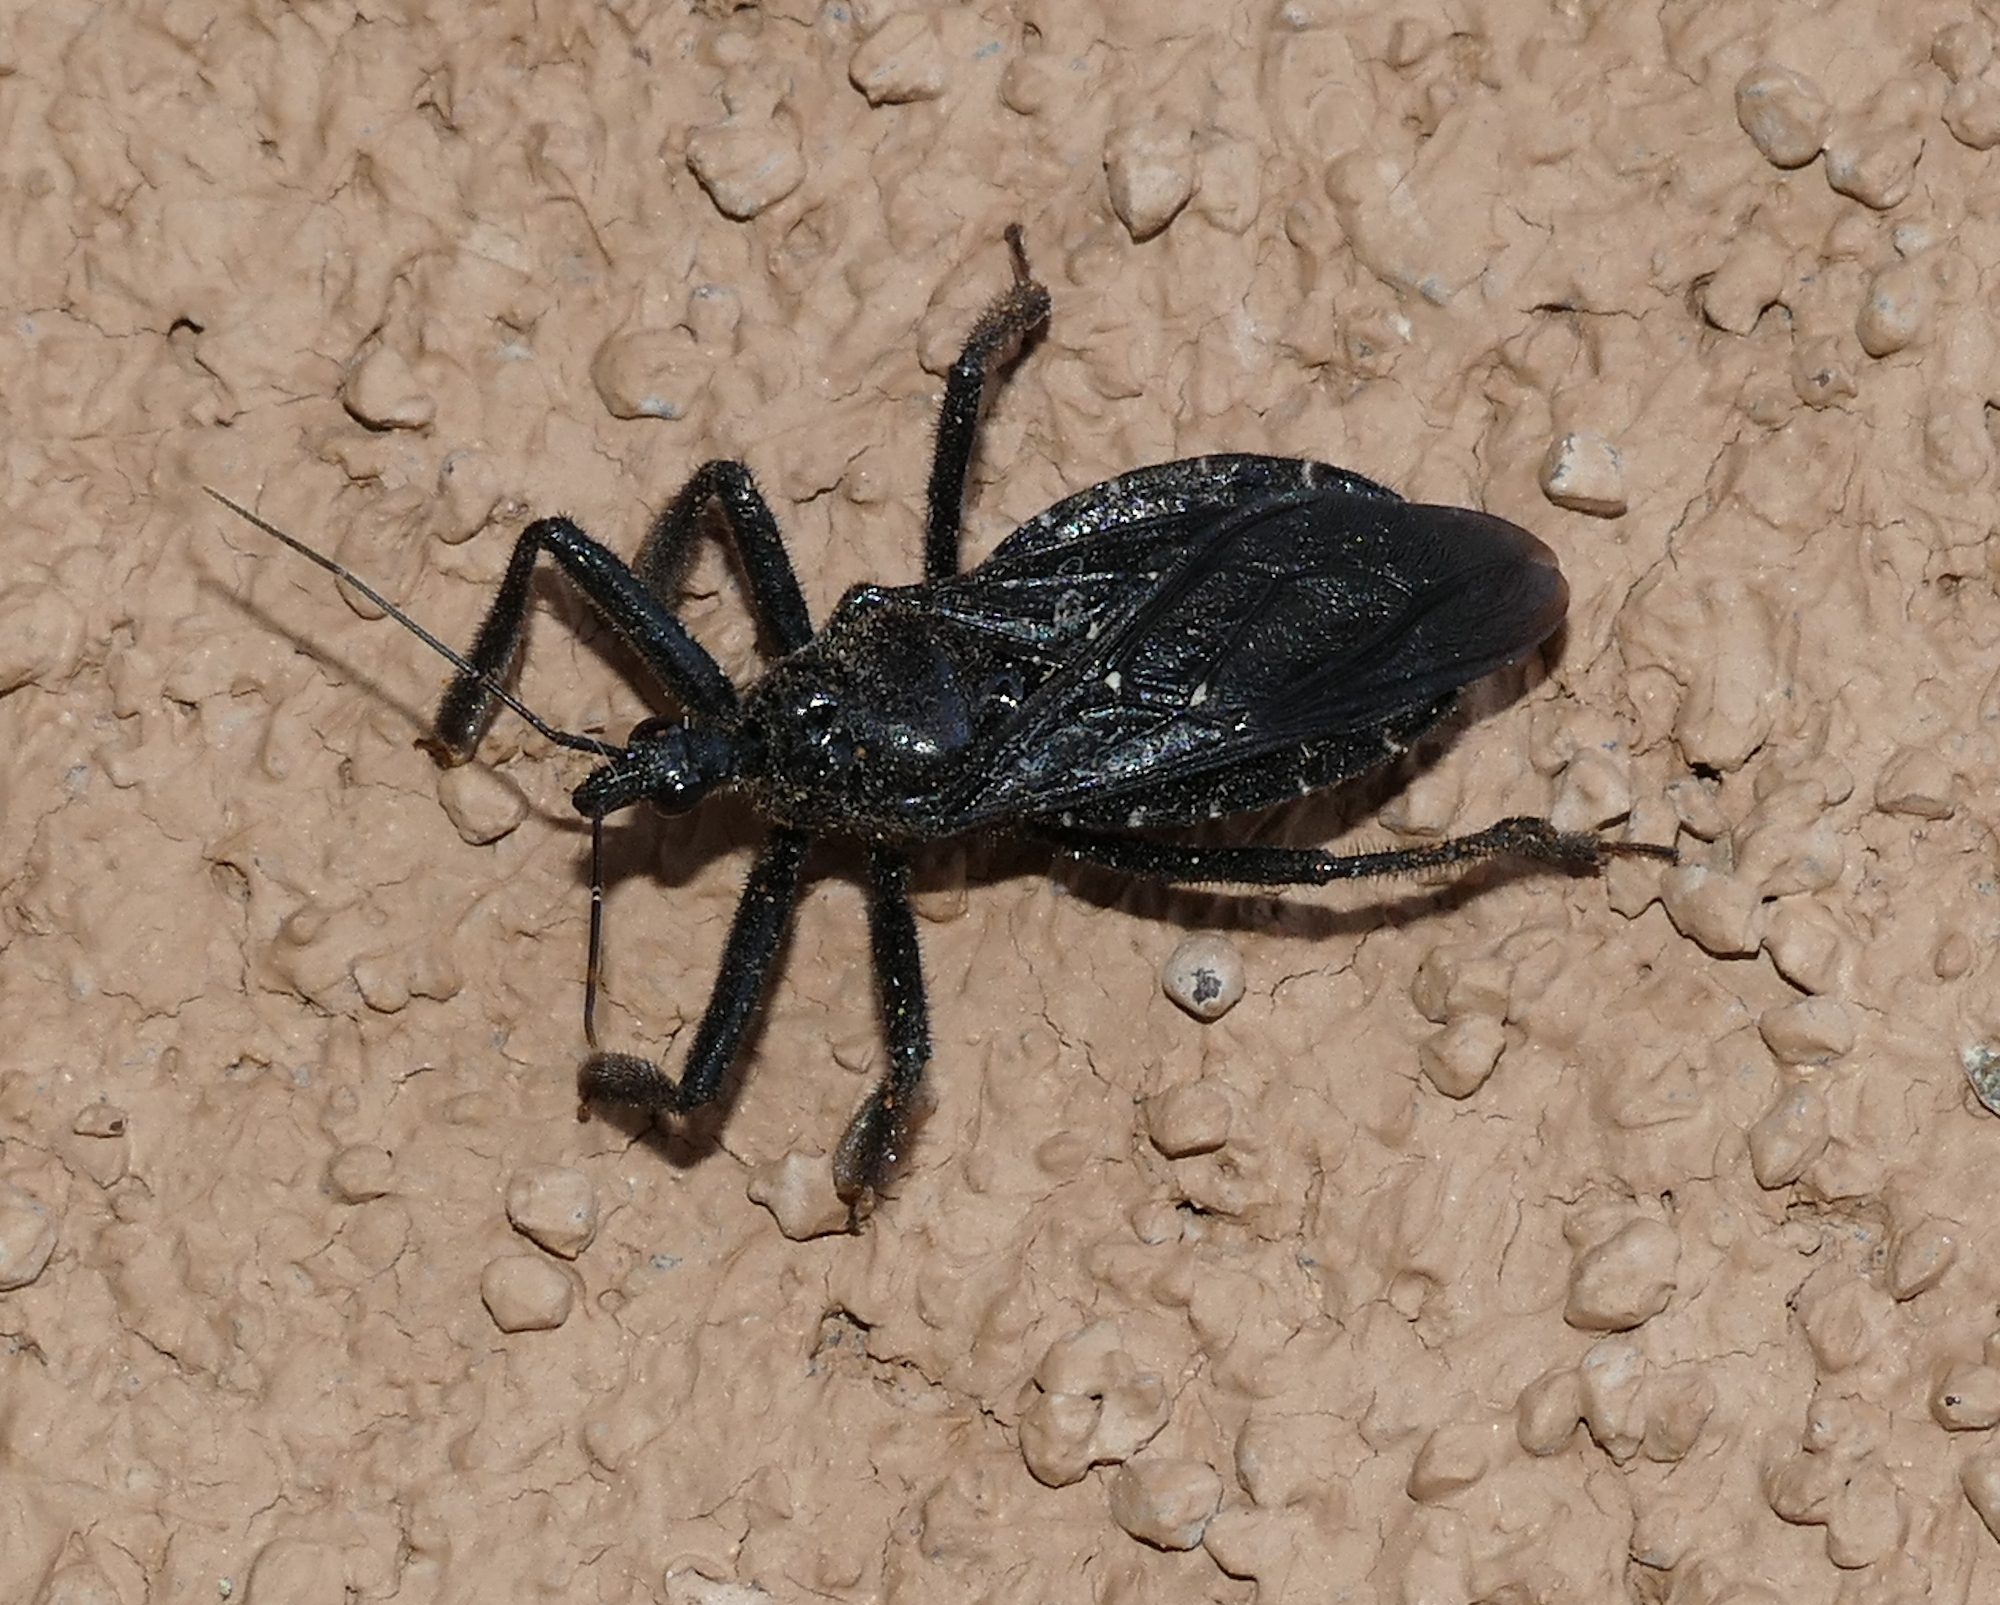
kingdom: Animalia
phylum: Arthropoda
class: Insecta
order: Hemiptera
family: Reduviidae
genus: Apiomerus
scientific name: Apiomerus longispinis
